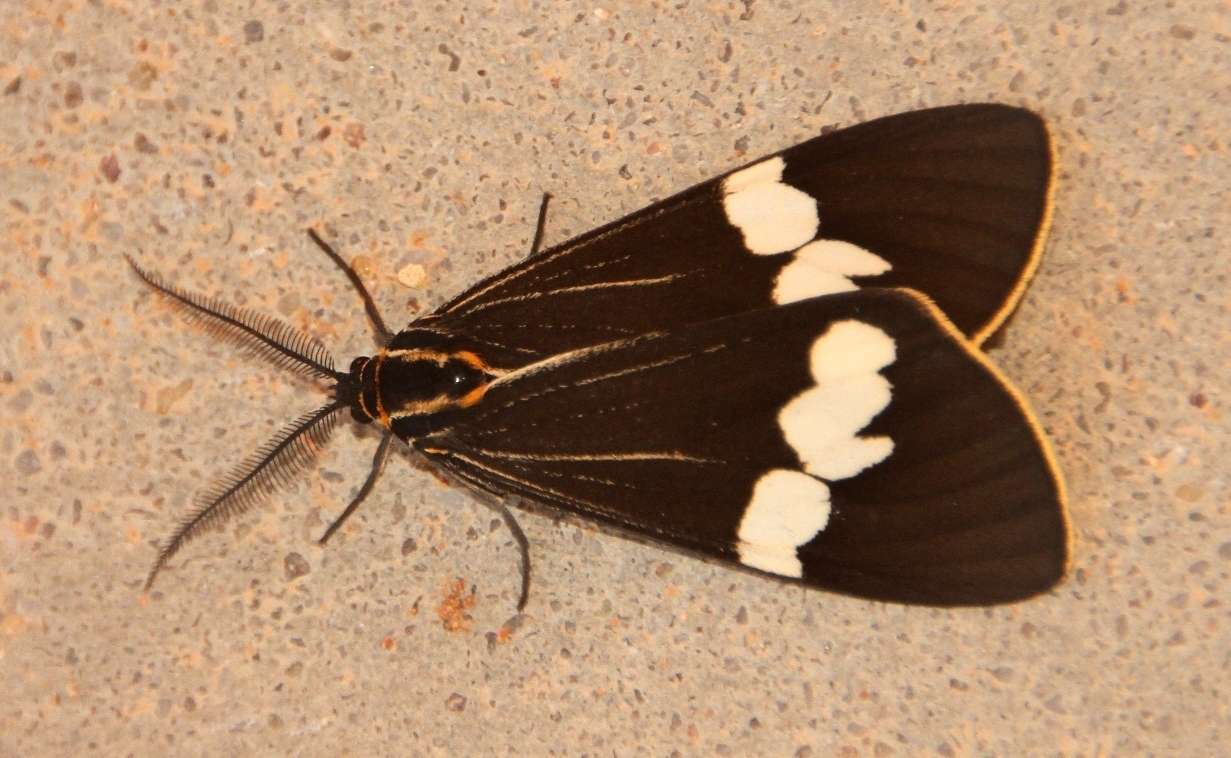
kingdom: Animalia
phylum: Arthropoda
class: Insecta
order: Lepidoptera
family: Erebidae
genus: Nyctemera
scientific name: Nyctemera amicus
